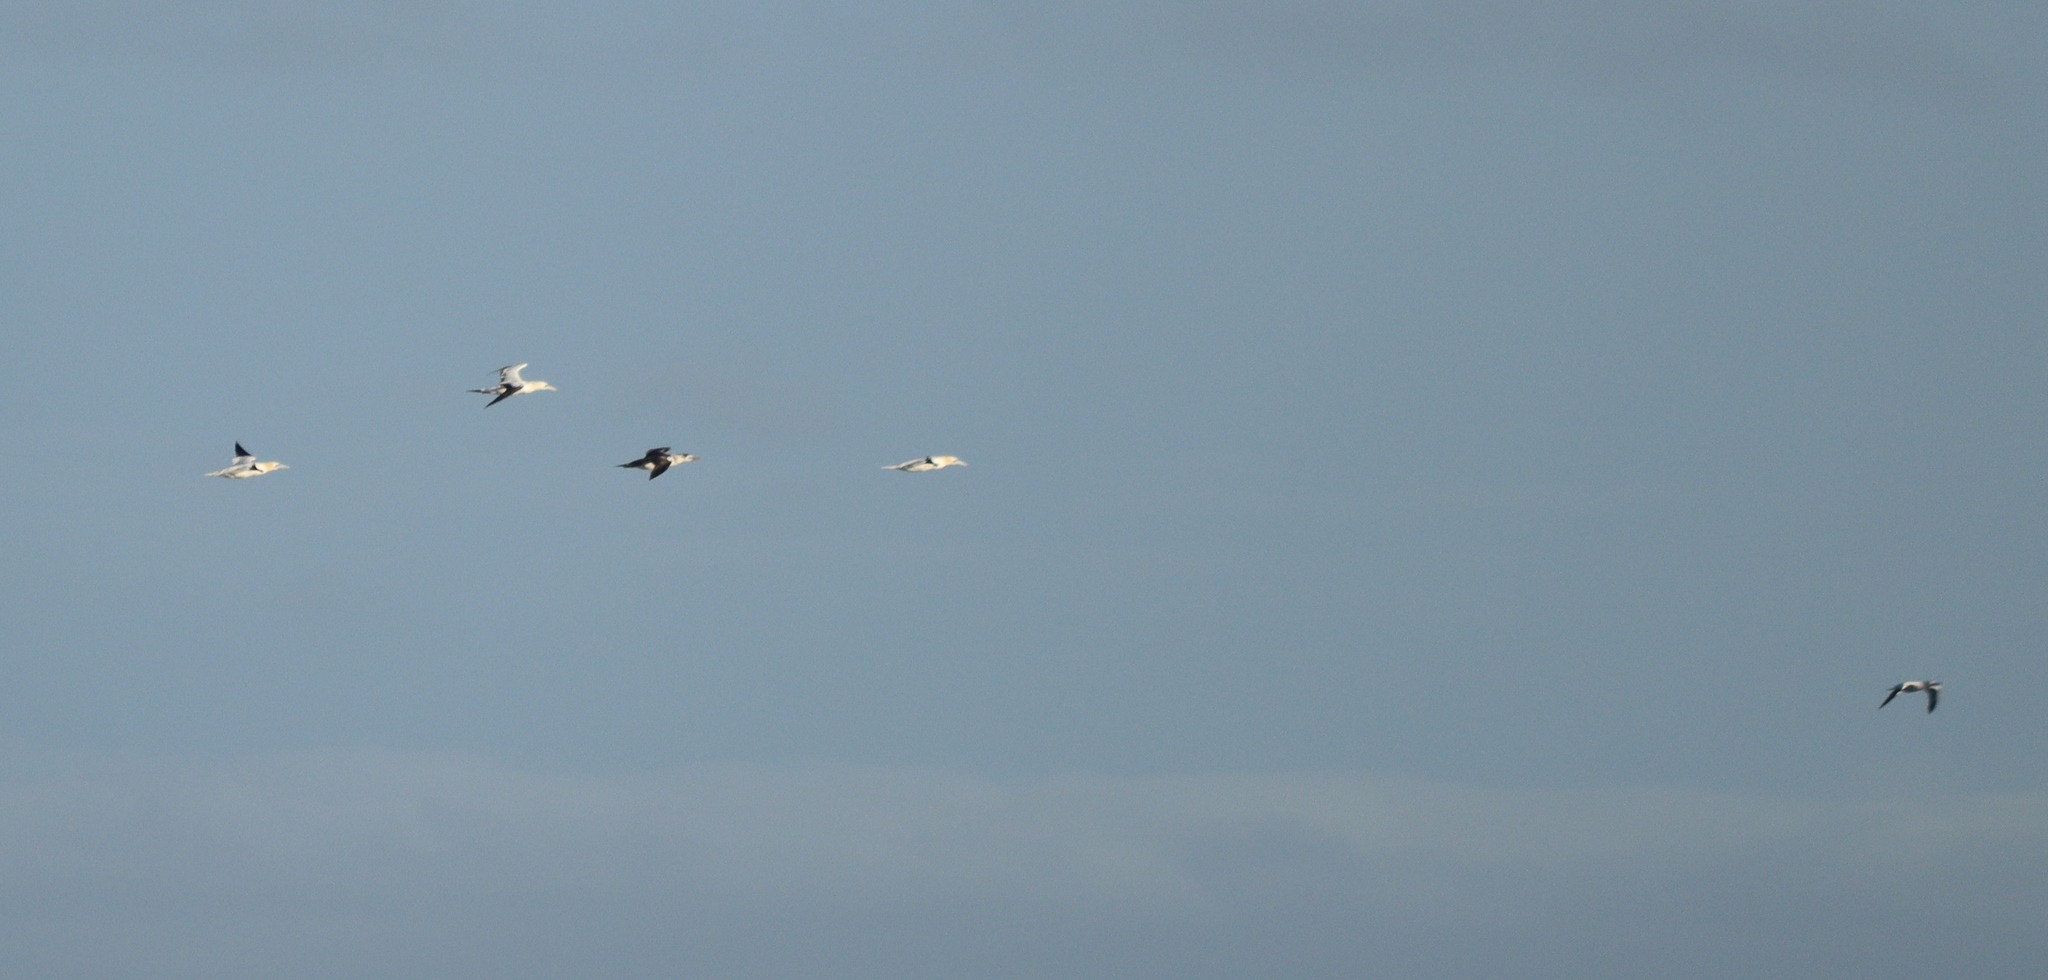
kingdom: Animalia
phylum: Chordata
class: Aves
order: Suliformes
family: Sulidae
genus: Morus
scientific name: Morus bassanus
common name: Northern gannet
